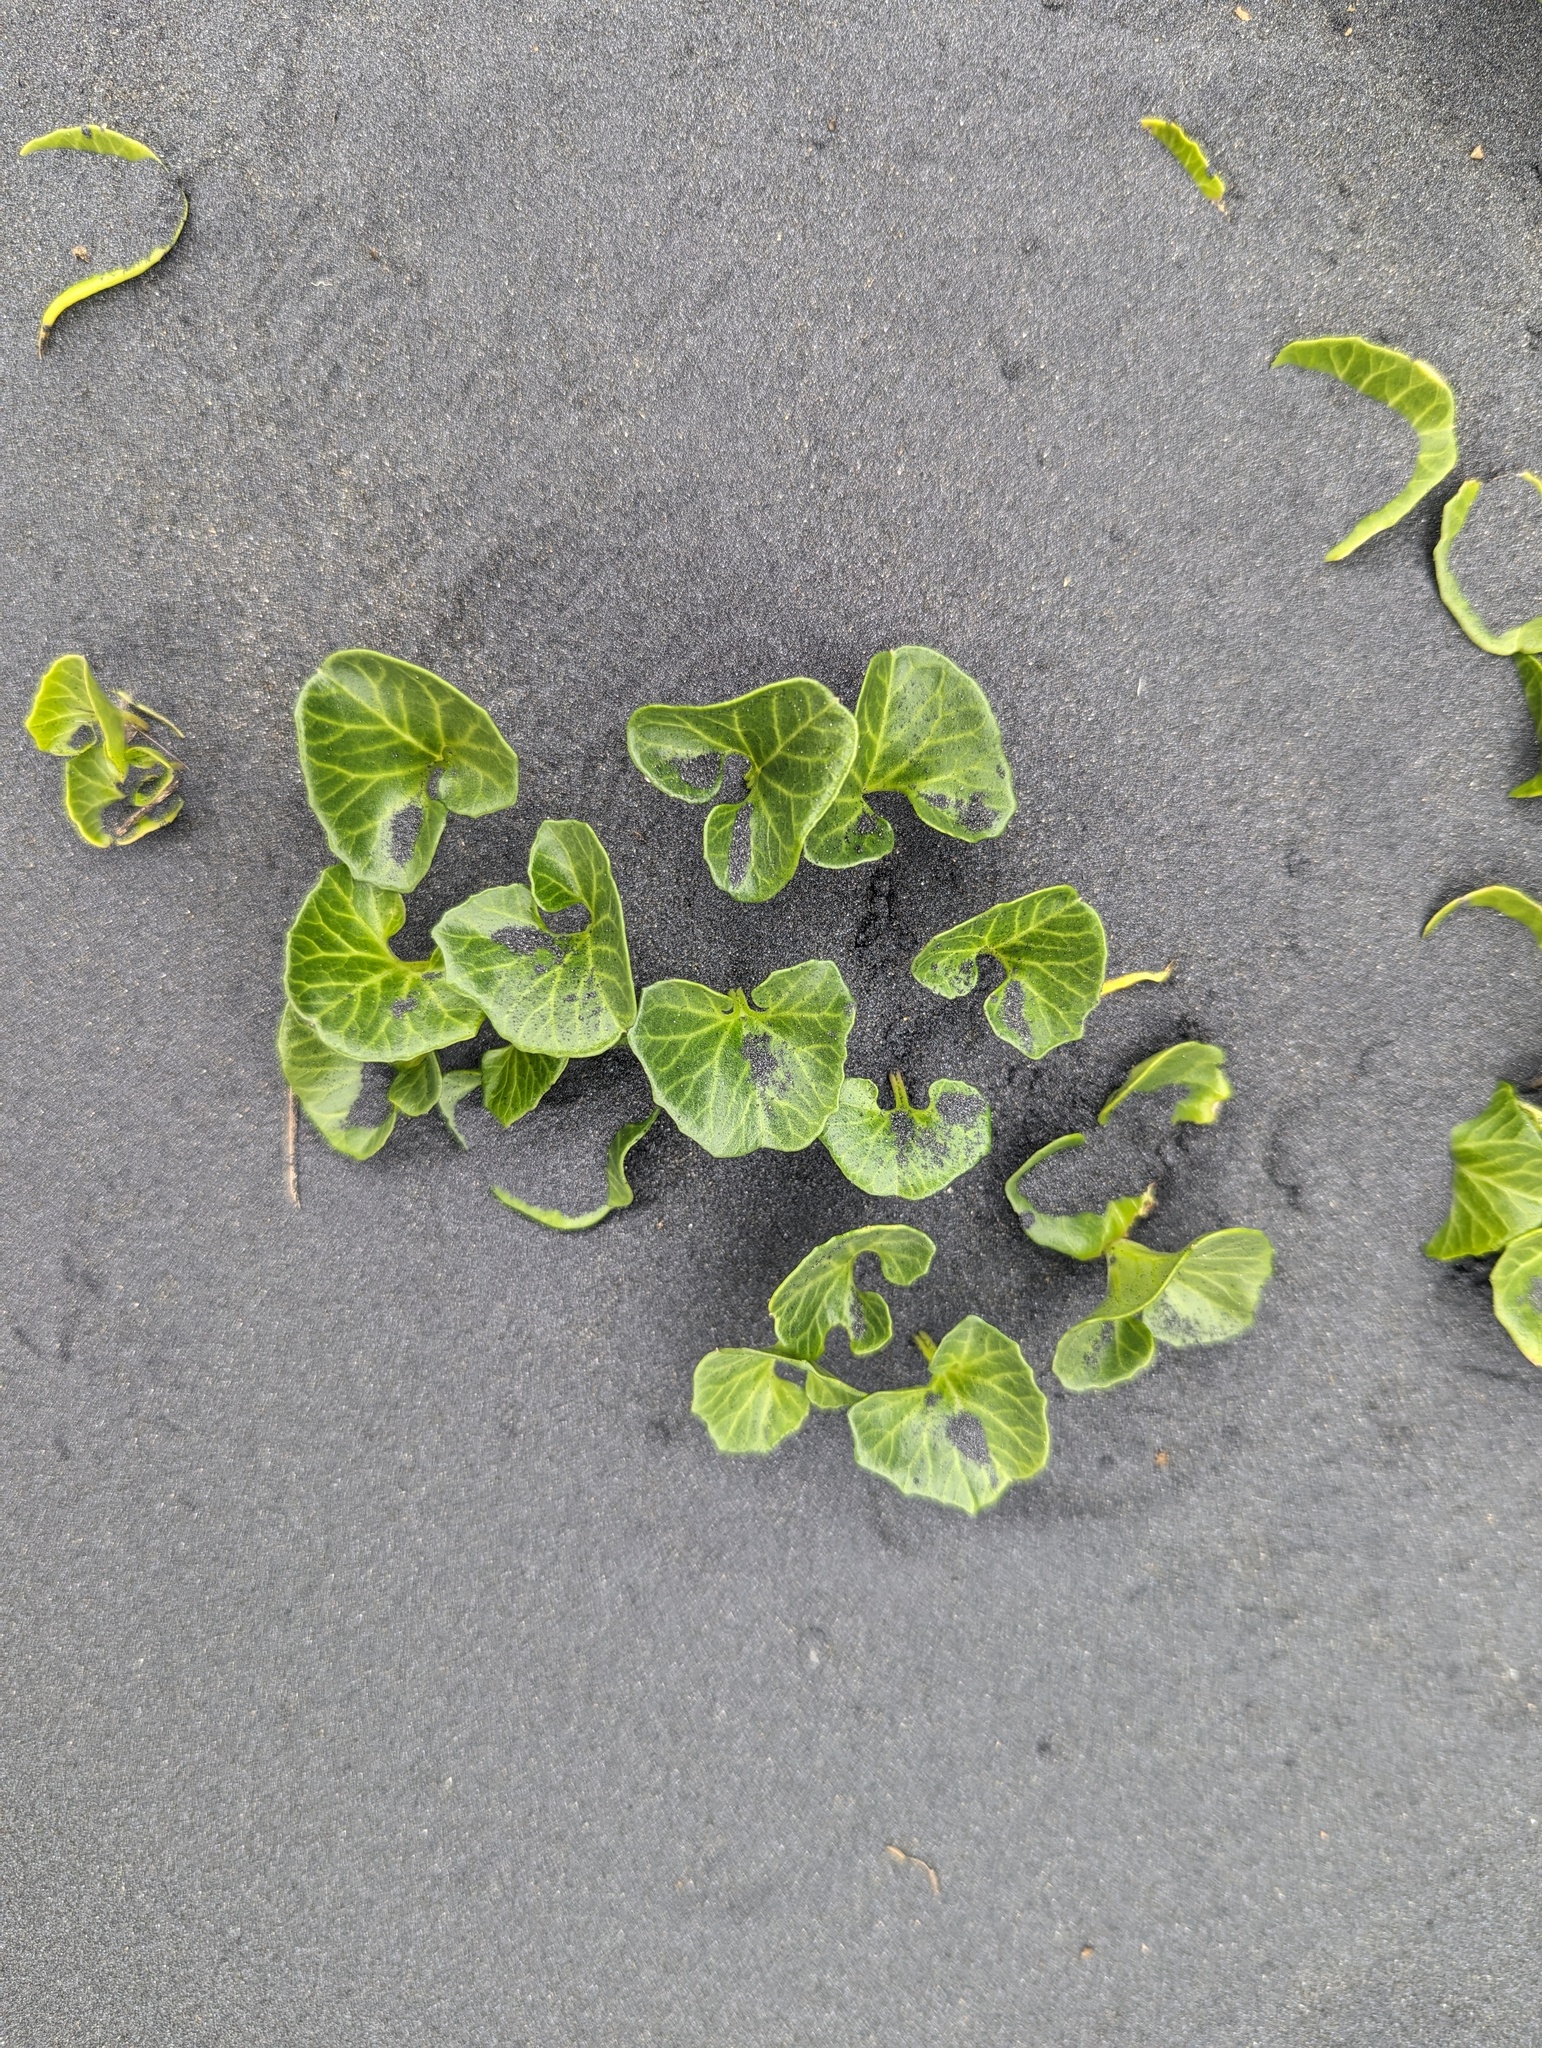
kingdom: Plantae
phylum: Tracheophyta
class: Magnoliopsida
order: Solanales
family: Convolvulaceae
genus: Calystegia
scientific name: Calystegia soldanella
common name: Sea bindweed
